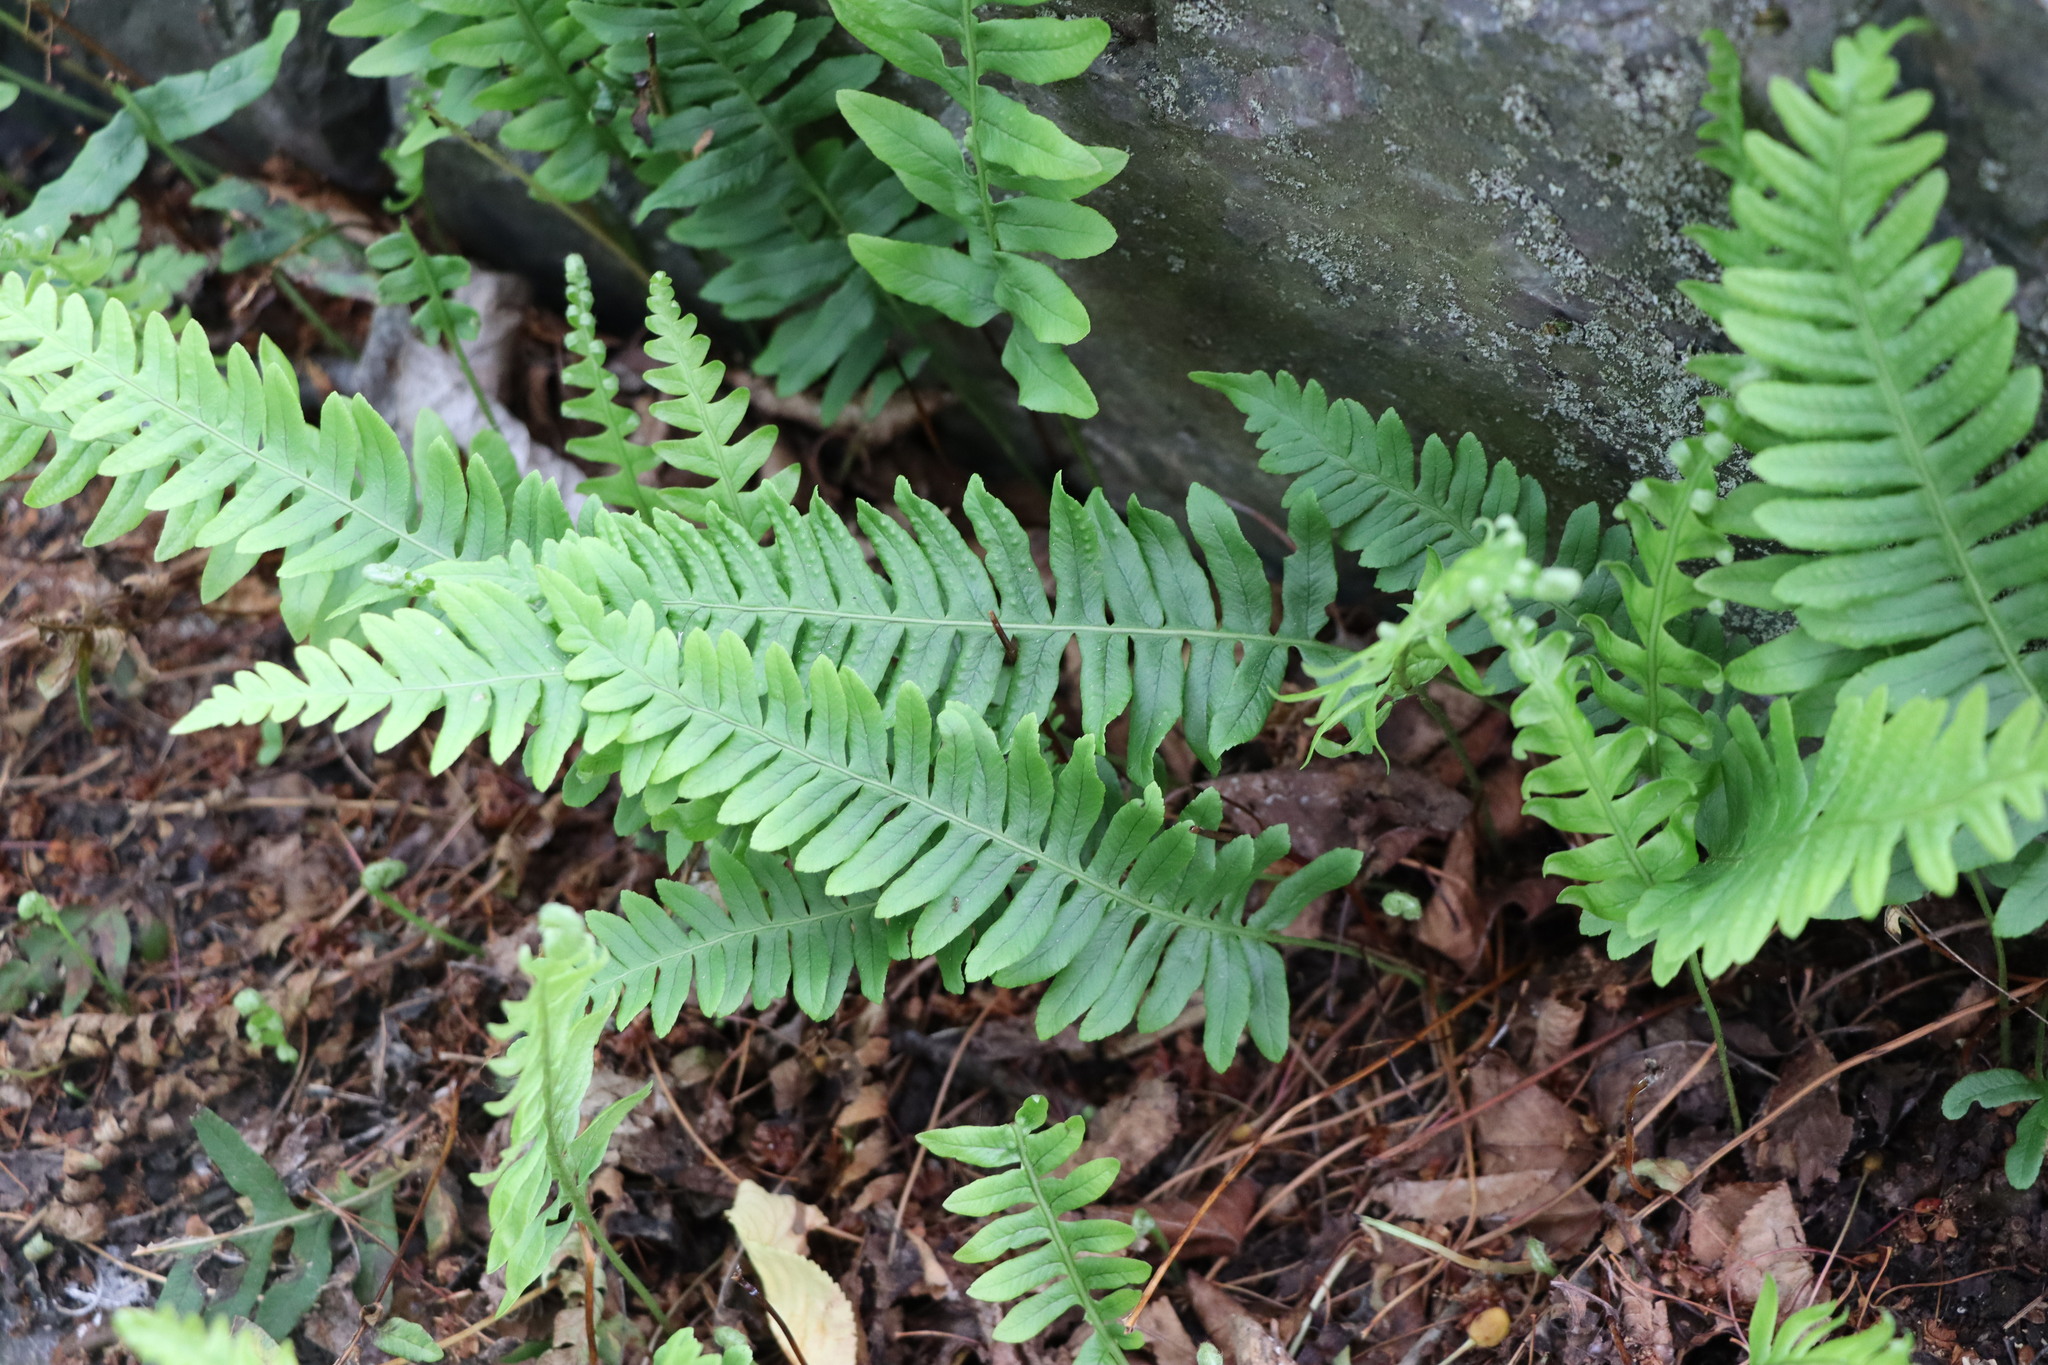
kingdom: Plantae
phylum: Tracheophyta
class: Polypodiopsida
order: Polypodiales
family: Polypodiaceae
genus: Polypodium
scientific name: Polypodium vulgare
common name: Common polypody
